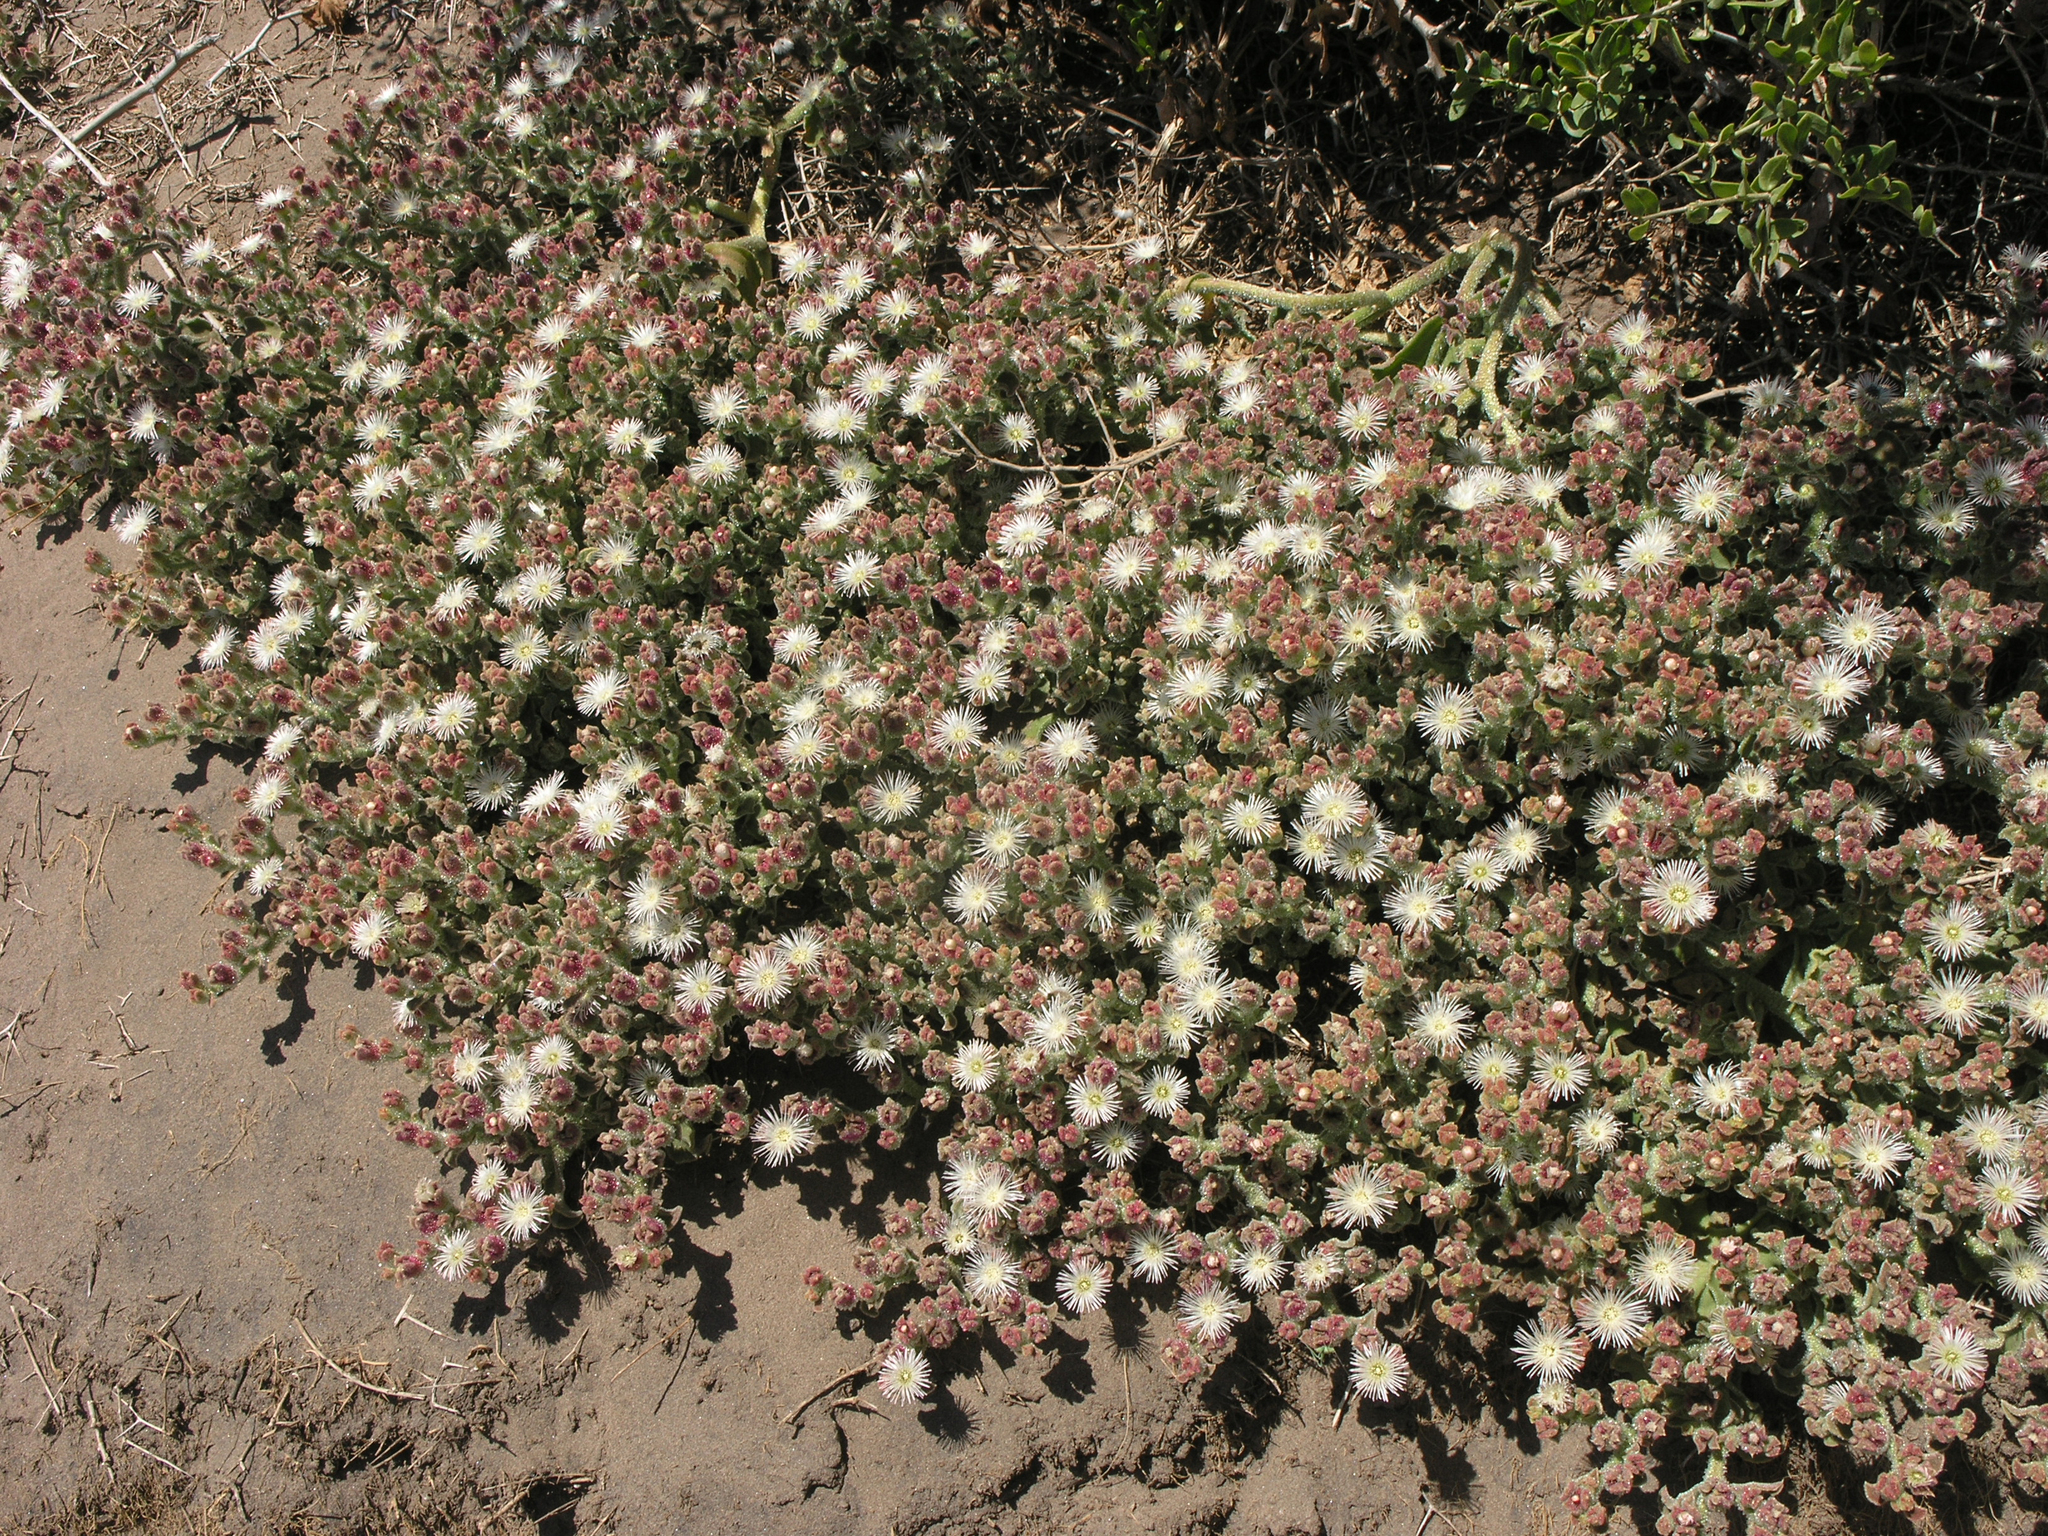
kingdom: Plantae
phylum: Tracheophyta
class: Magnoliopsida
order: Caryophyllales
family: Aizoaceae
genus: Mesembryanthemum
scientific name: Mesembryanthemum crystallinum
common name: Common iceplant
